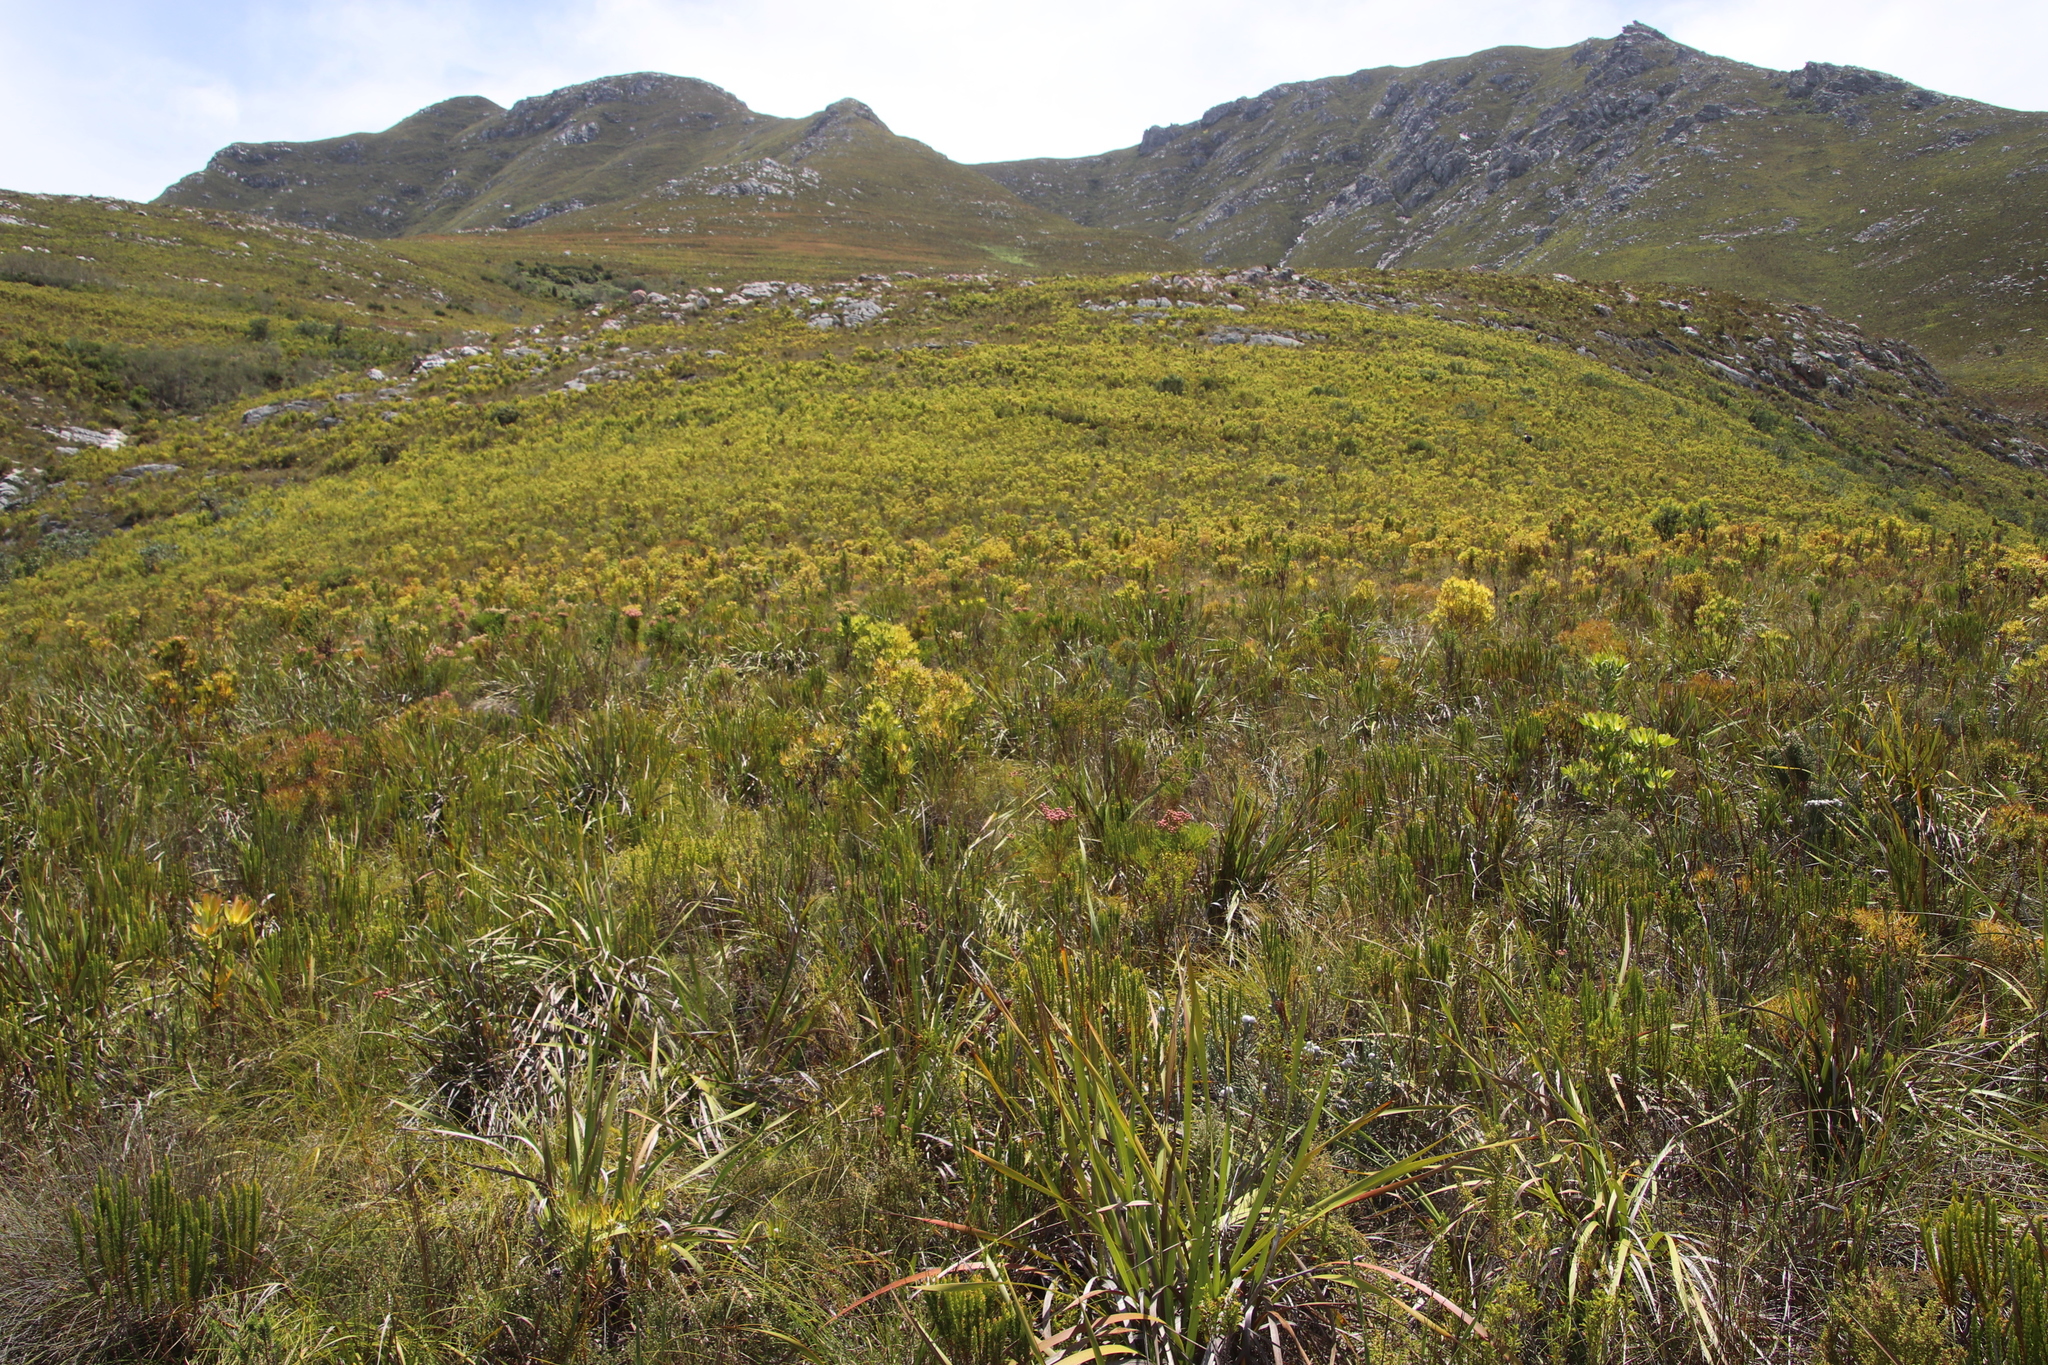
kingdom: Plantae
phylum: Tracheophyta
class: Magnoliopsida
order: Proteales
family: Proteaceae
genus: Leucadendron
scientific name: Leucadendron xanthoconus
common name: Sickle-leaf conebush
